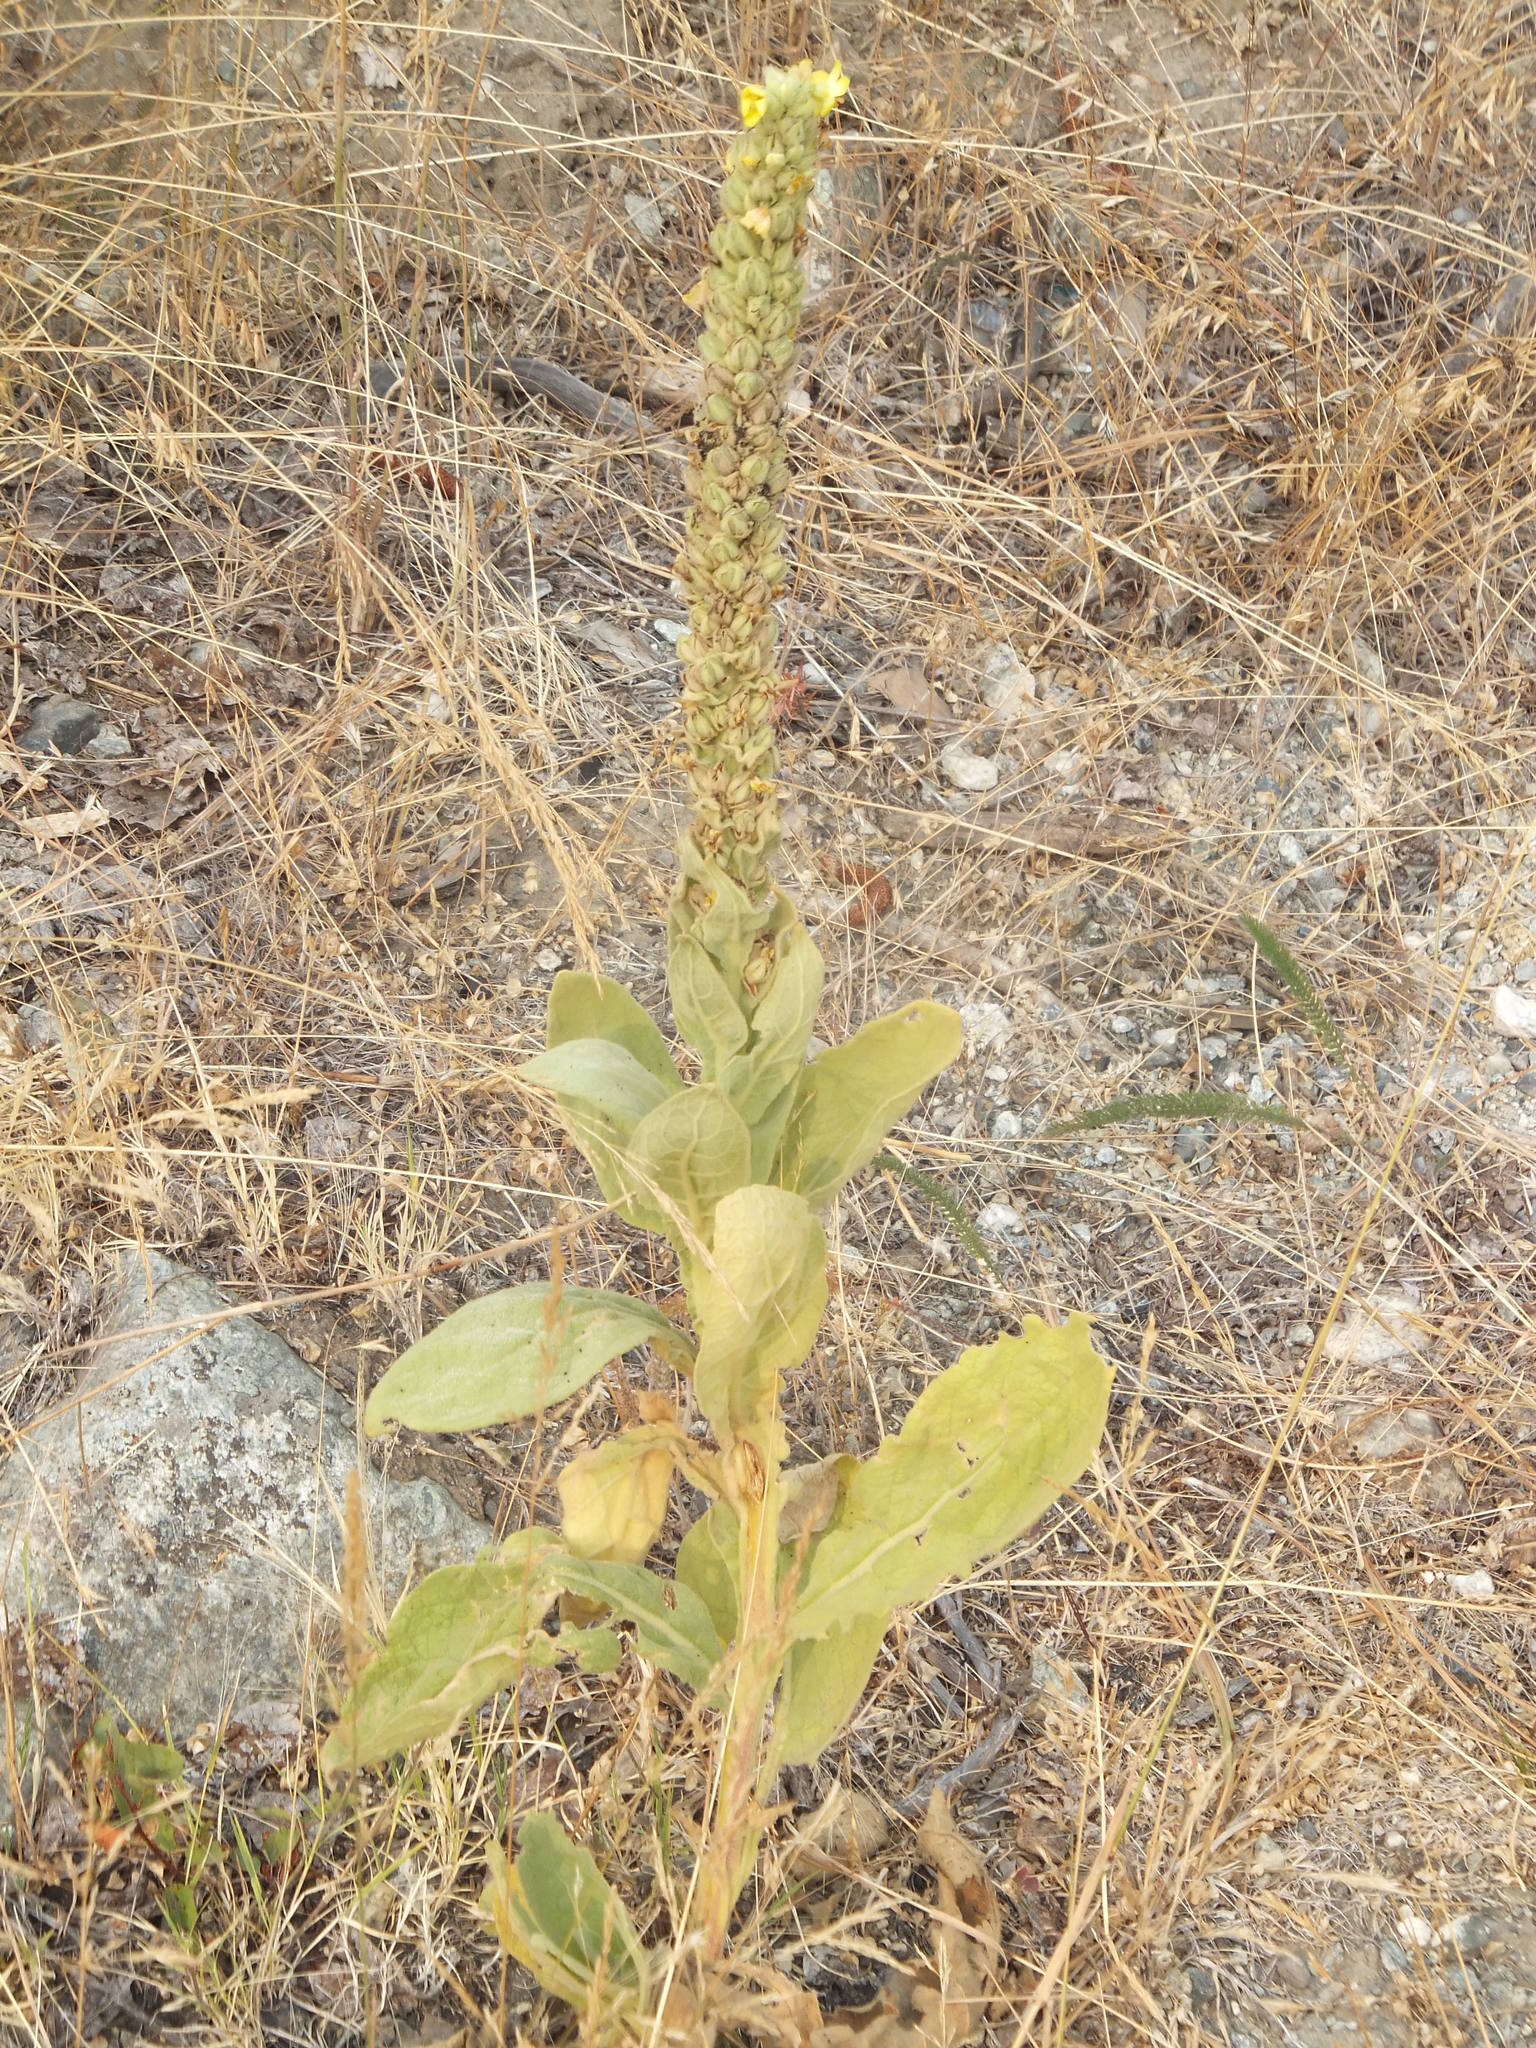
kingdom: Plantae
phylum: Tracheophyta
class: Magnoliopsida
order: Lamiales
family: Scrophulariaceae
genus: Verbascum
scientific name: Verbascum thapsus
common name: Common mullein
